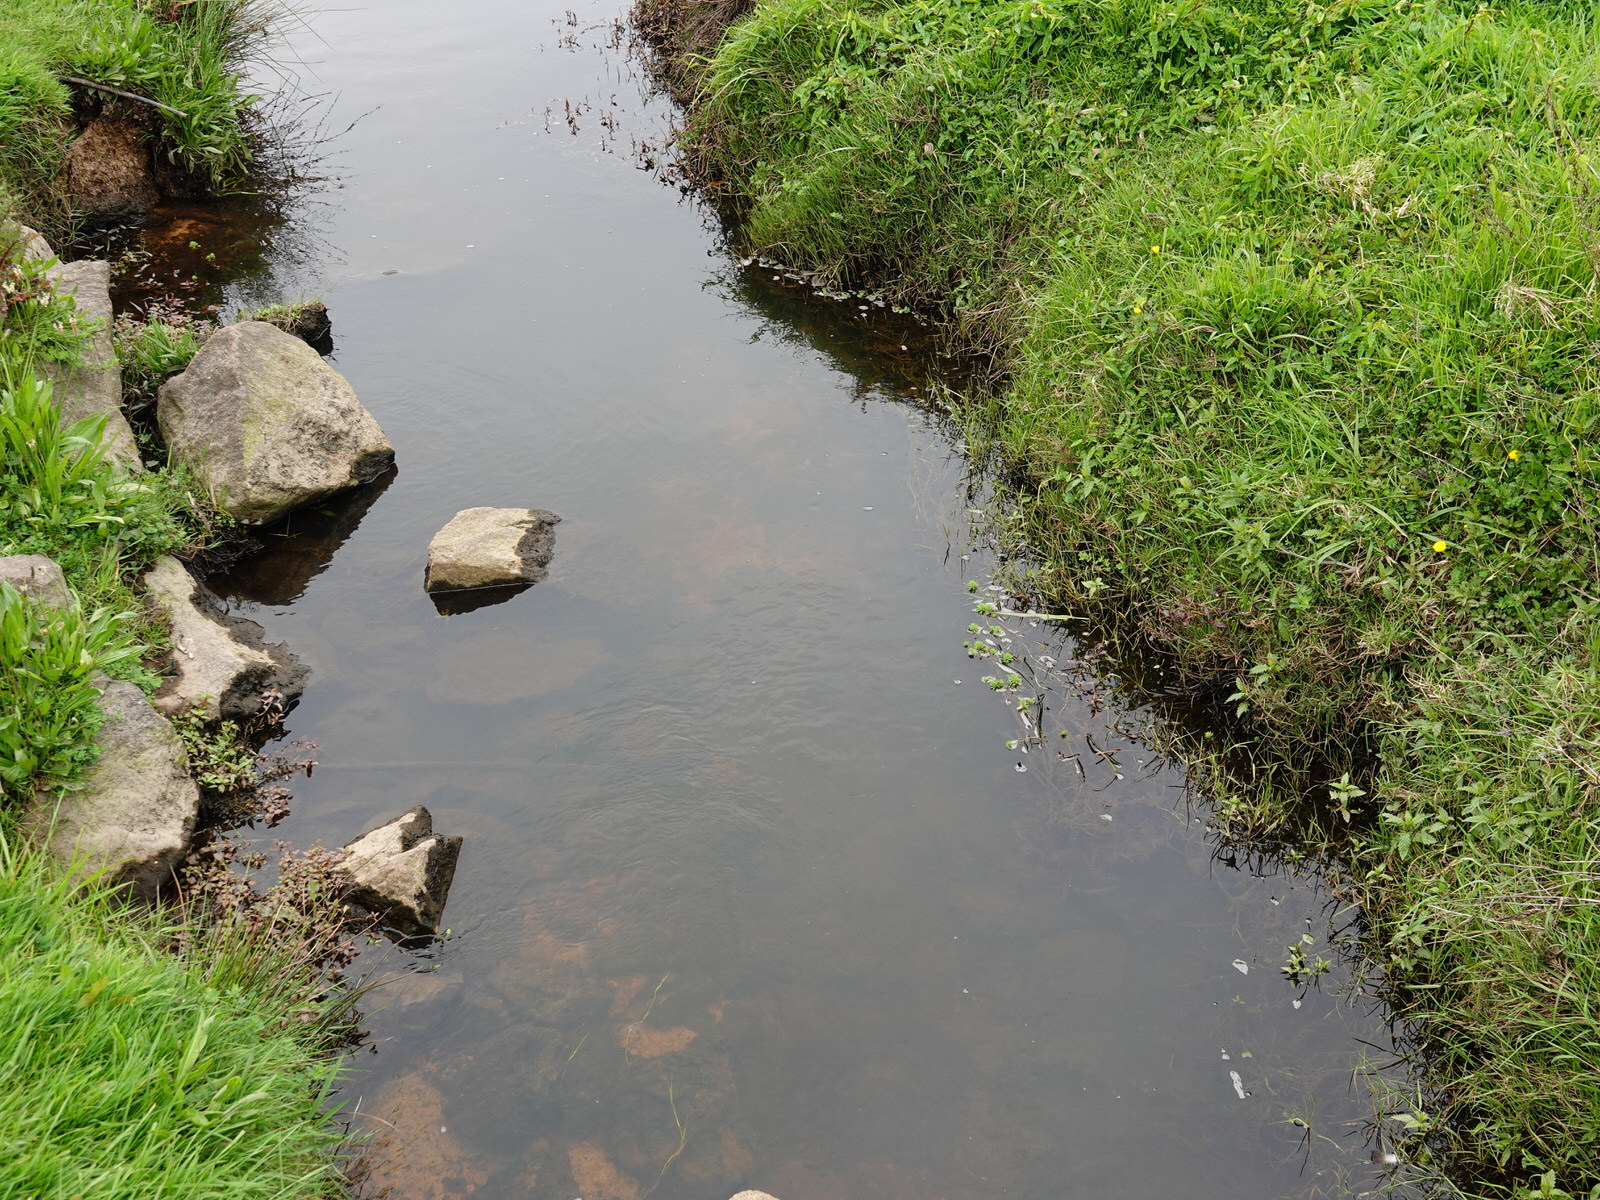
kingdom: Plantae
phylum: Tracheophyta
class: Magnoliopsida
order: Saxifragales
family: Haloragaceae
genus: Myriophyllum
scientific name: Myriophyllum aquaticum
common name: Parrot's feather
